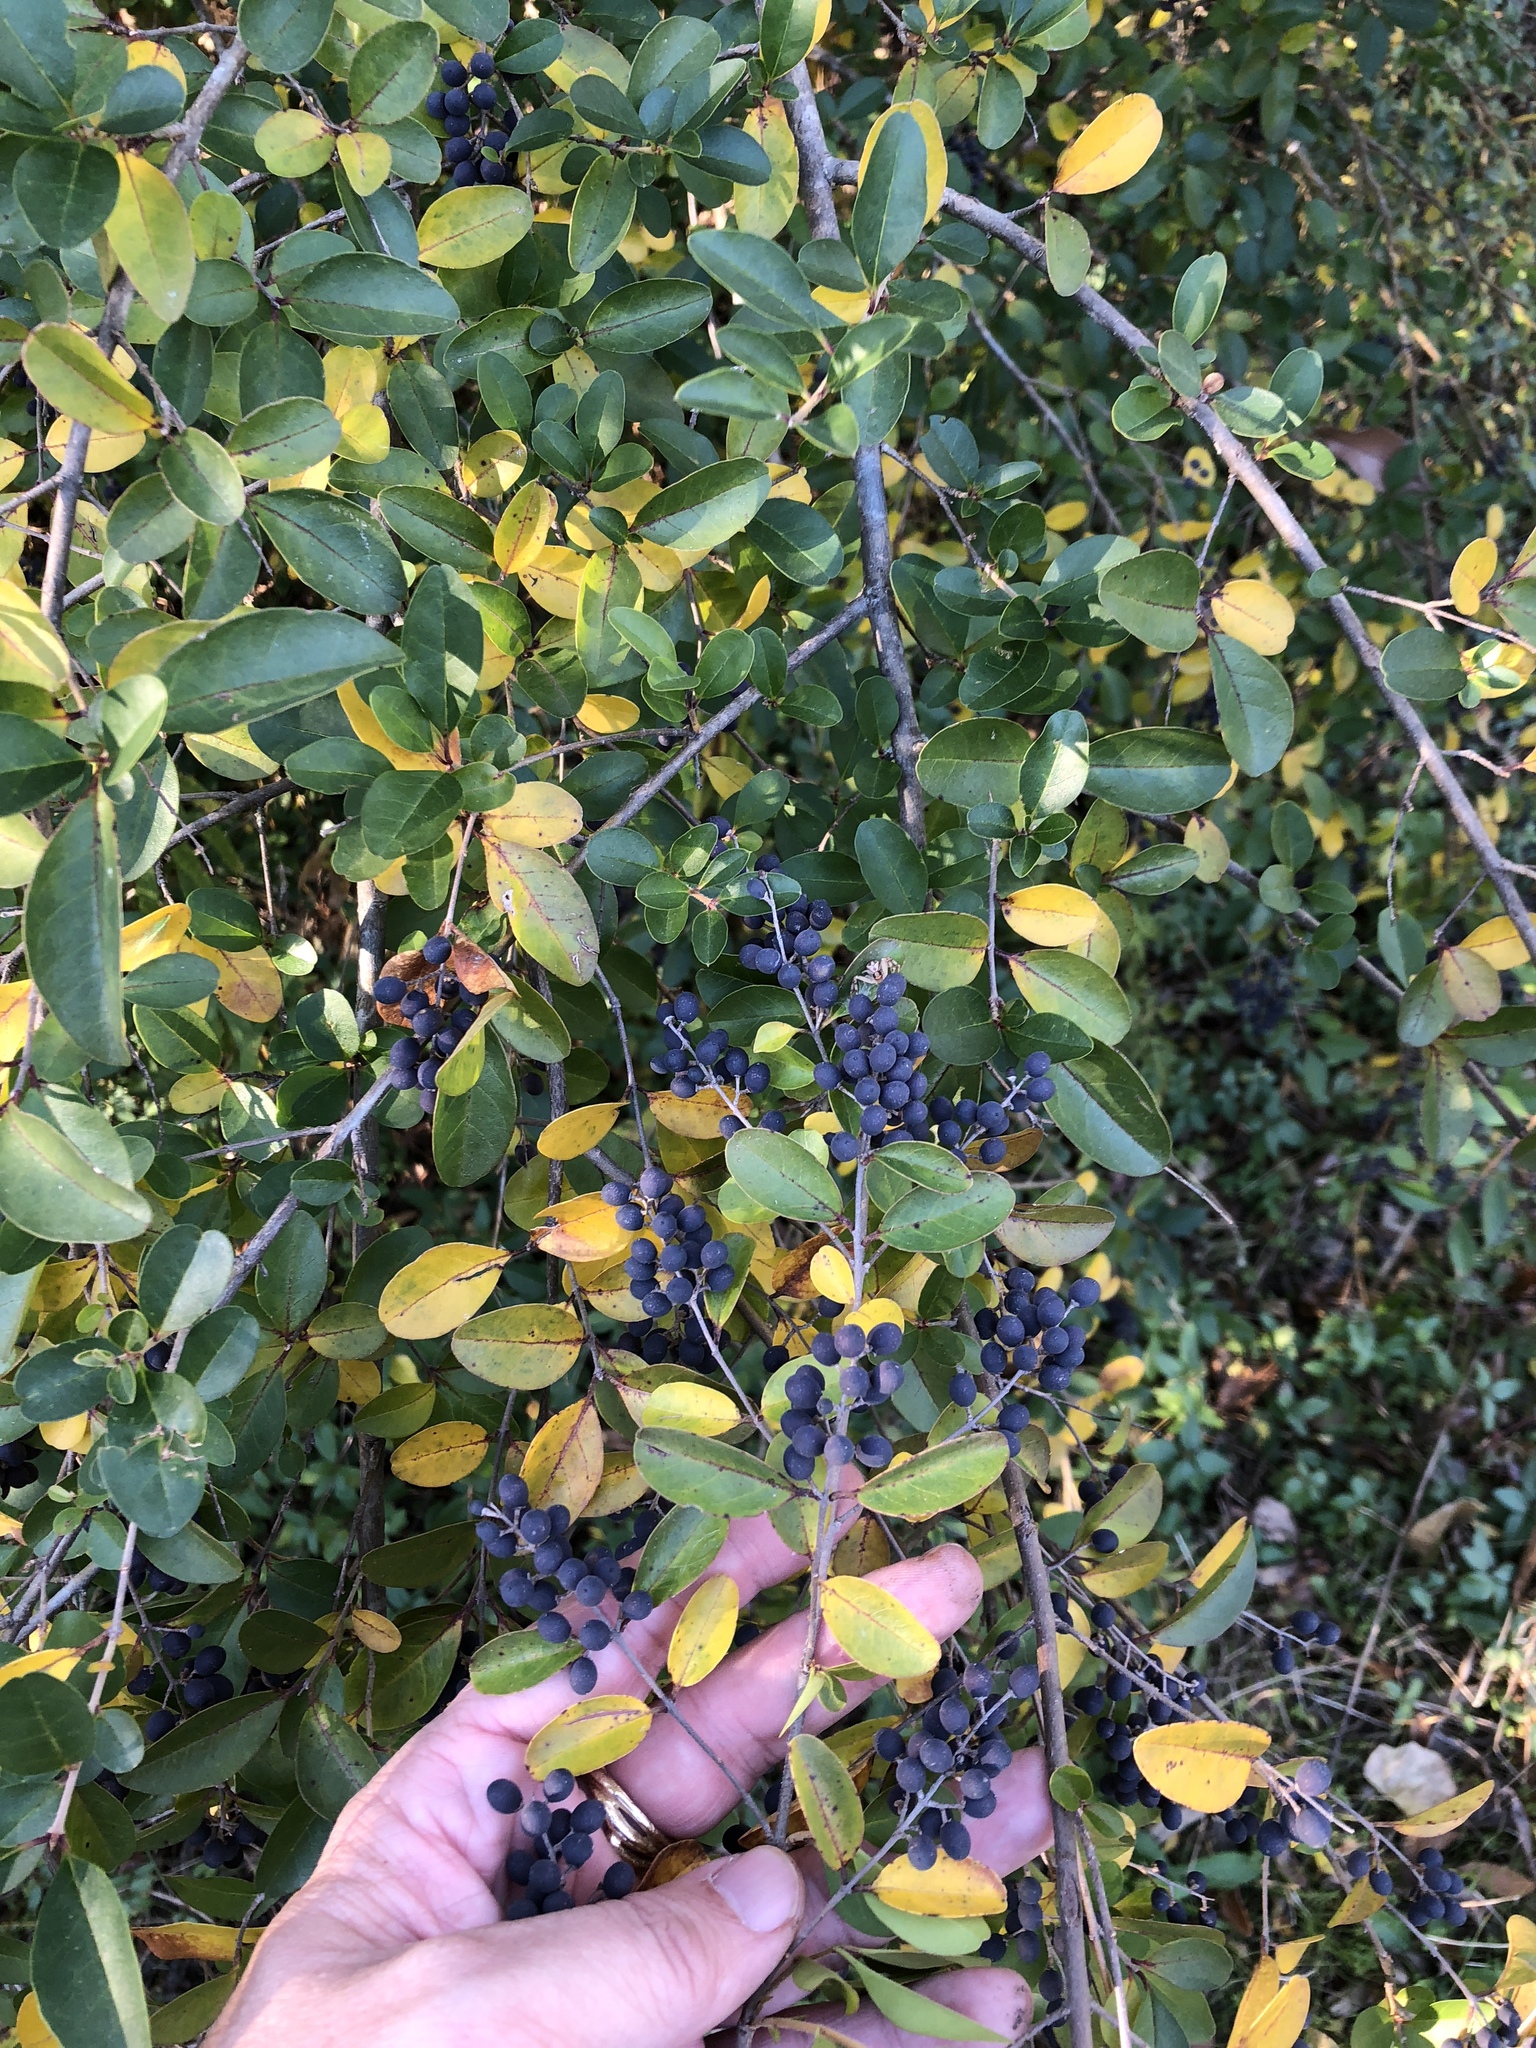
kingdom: Plantae
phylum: Tracheophyta
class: Magnoliopsida
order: Lamiales
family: Oleaceae
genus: Ligustrum
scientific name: Ligustrum sinense
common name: Chinese privet
